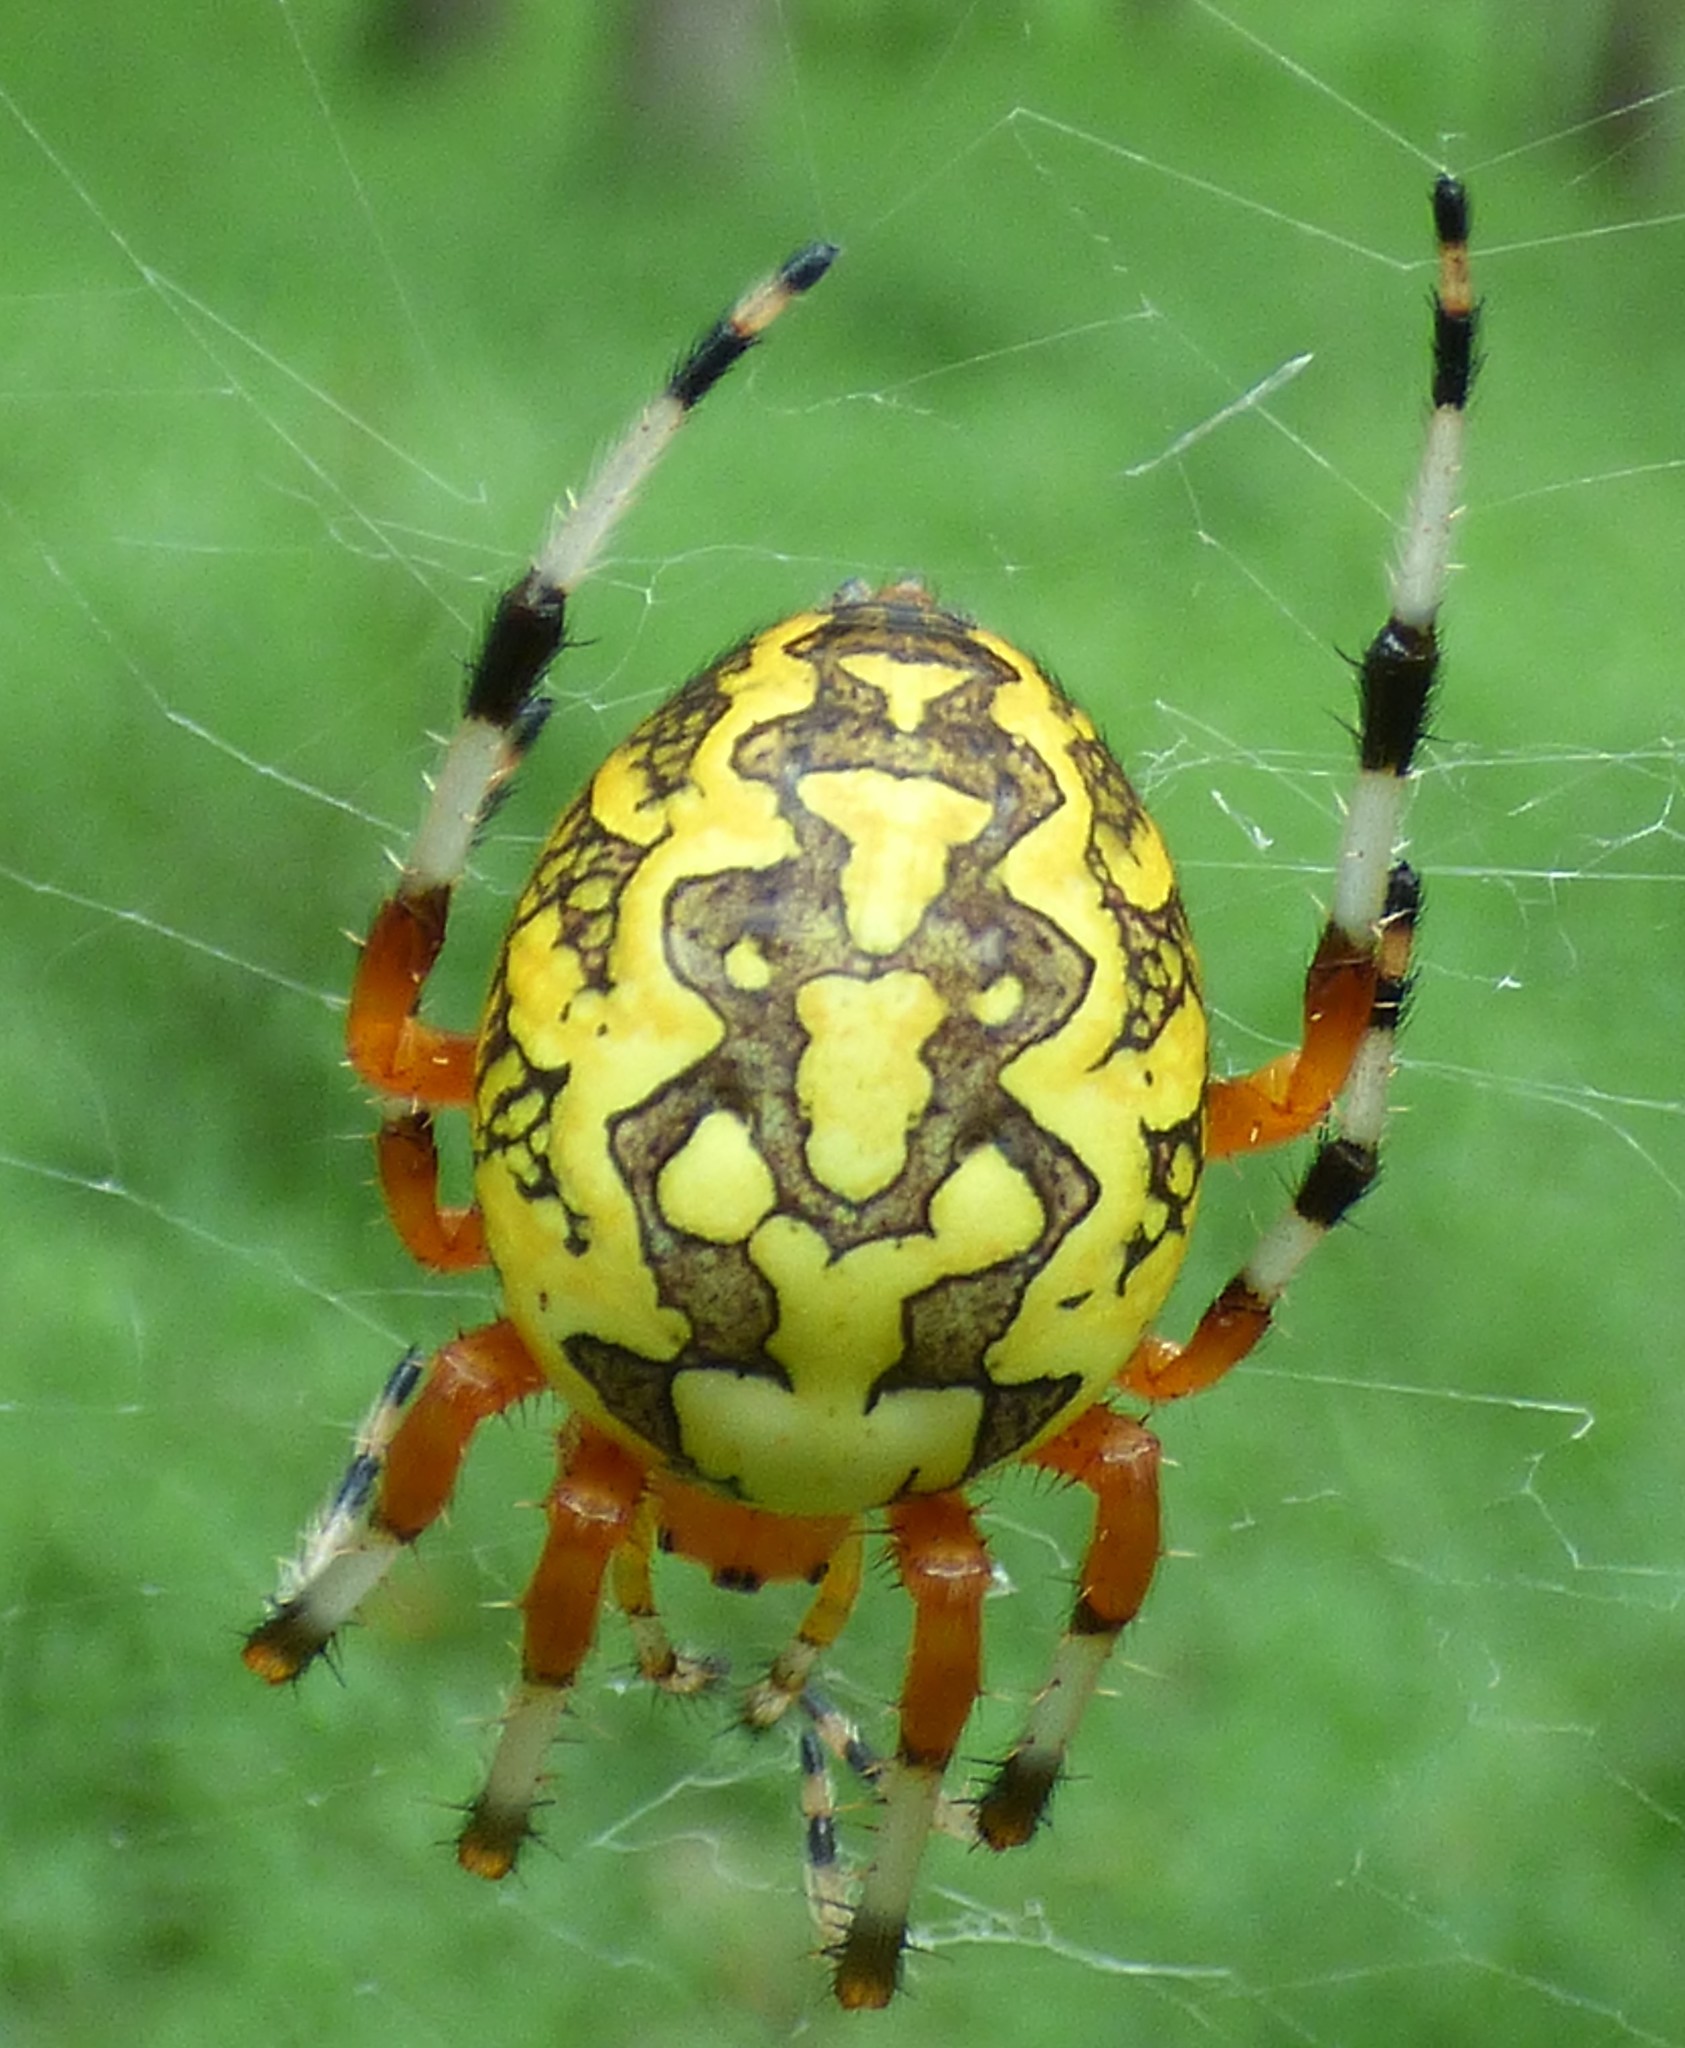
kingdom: Animalia
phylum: Arthropoda
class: Arachnida
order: Araneae
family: Araneidae
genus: Araneus
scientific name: Araneus marmoreus
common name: Marbled orbweaver
